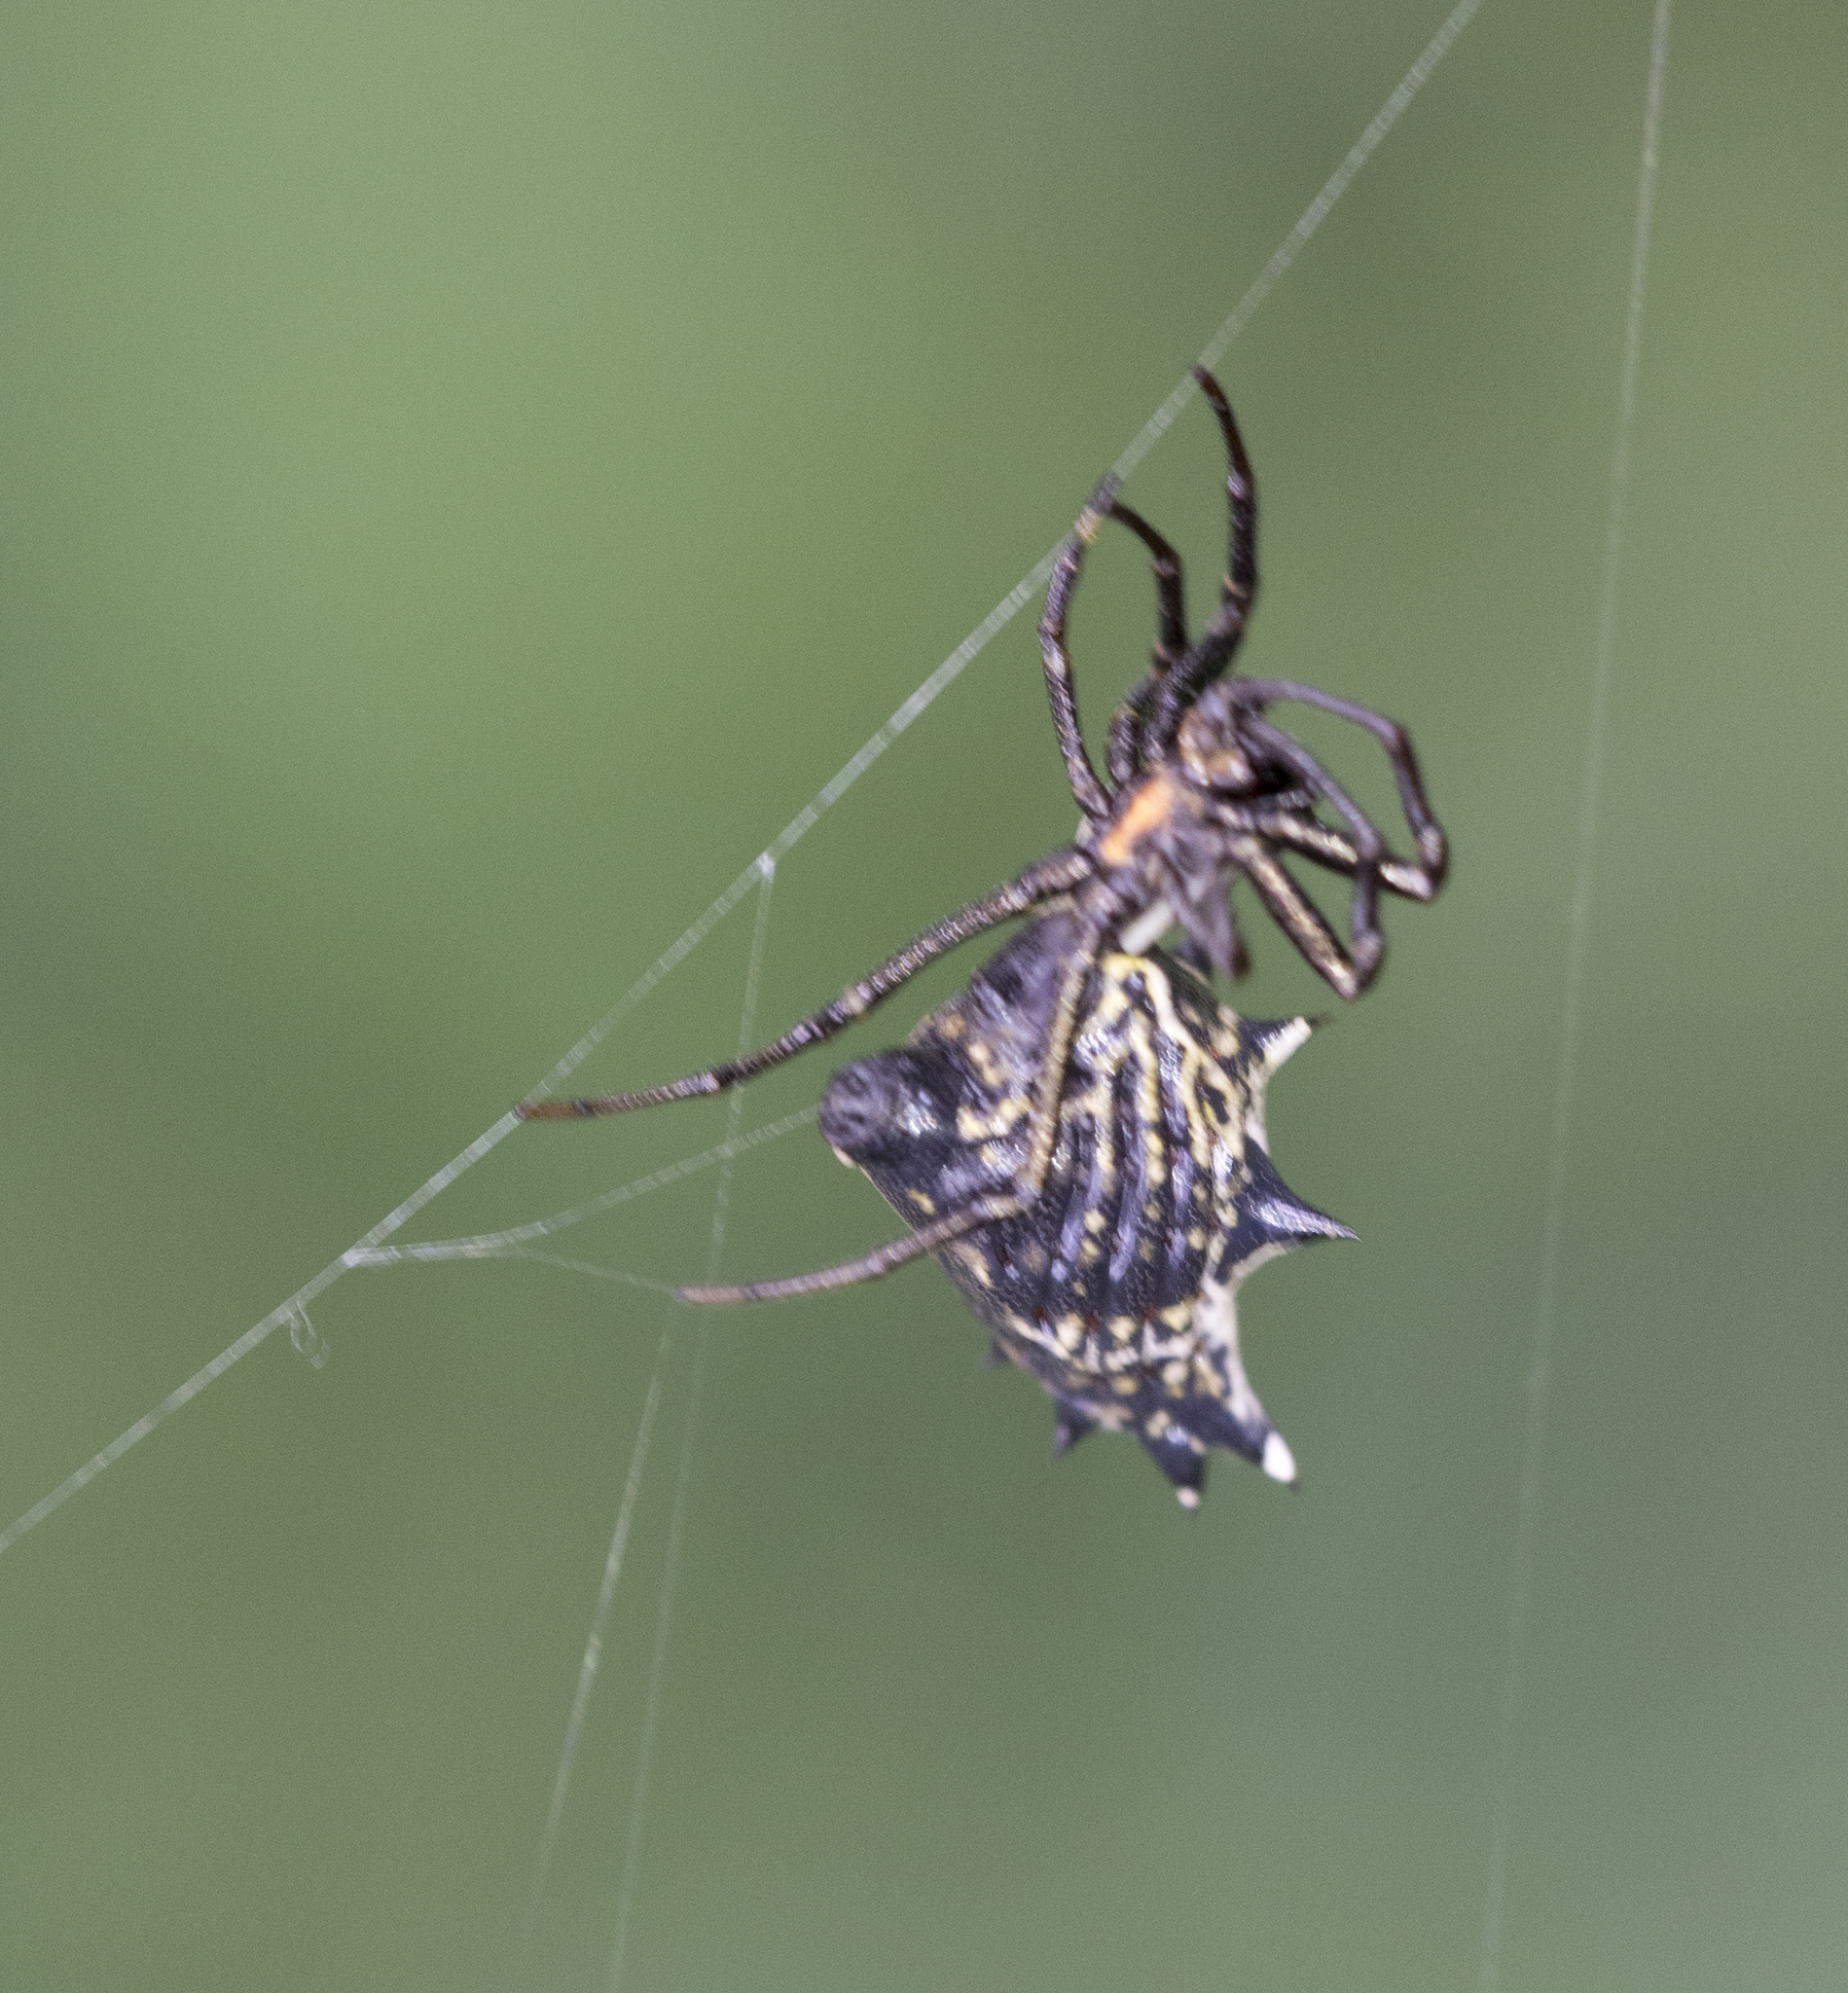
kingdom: Animalia
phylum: Arthropoda
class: Arachnida
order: Araneae
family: Araneidae
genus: Micrathena
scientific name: Micrathena gracilis
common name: Orb weavers
